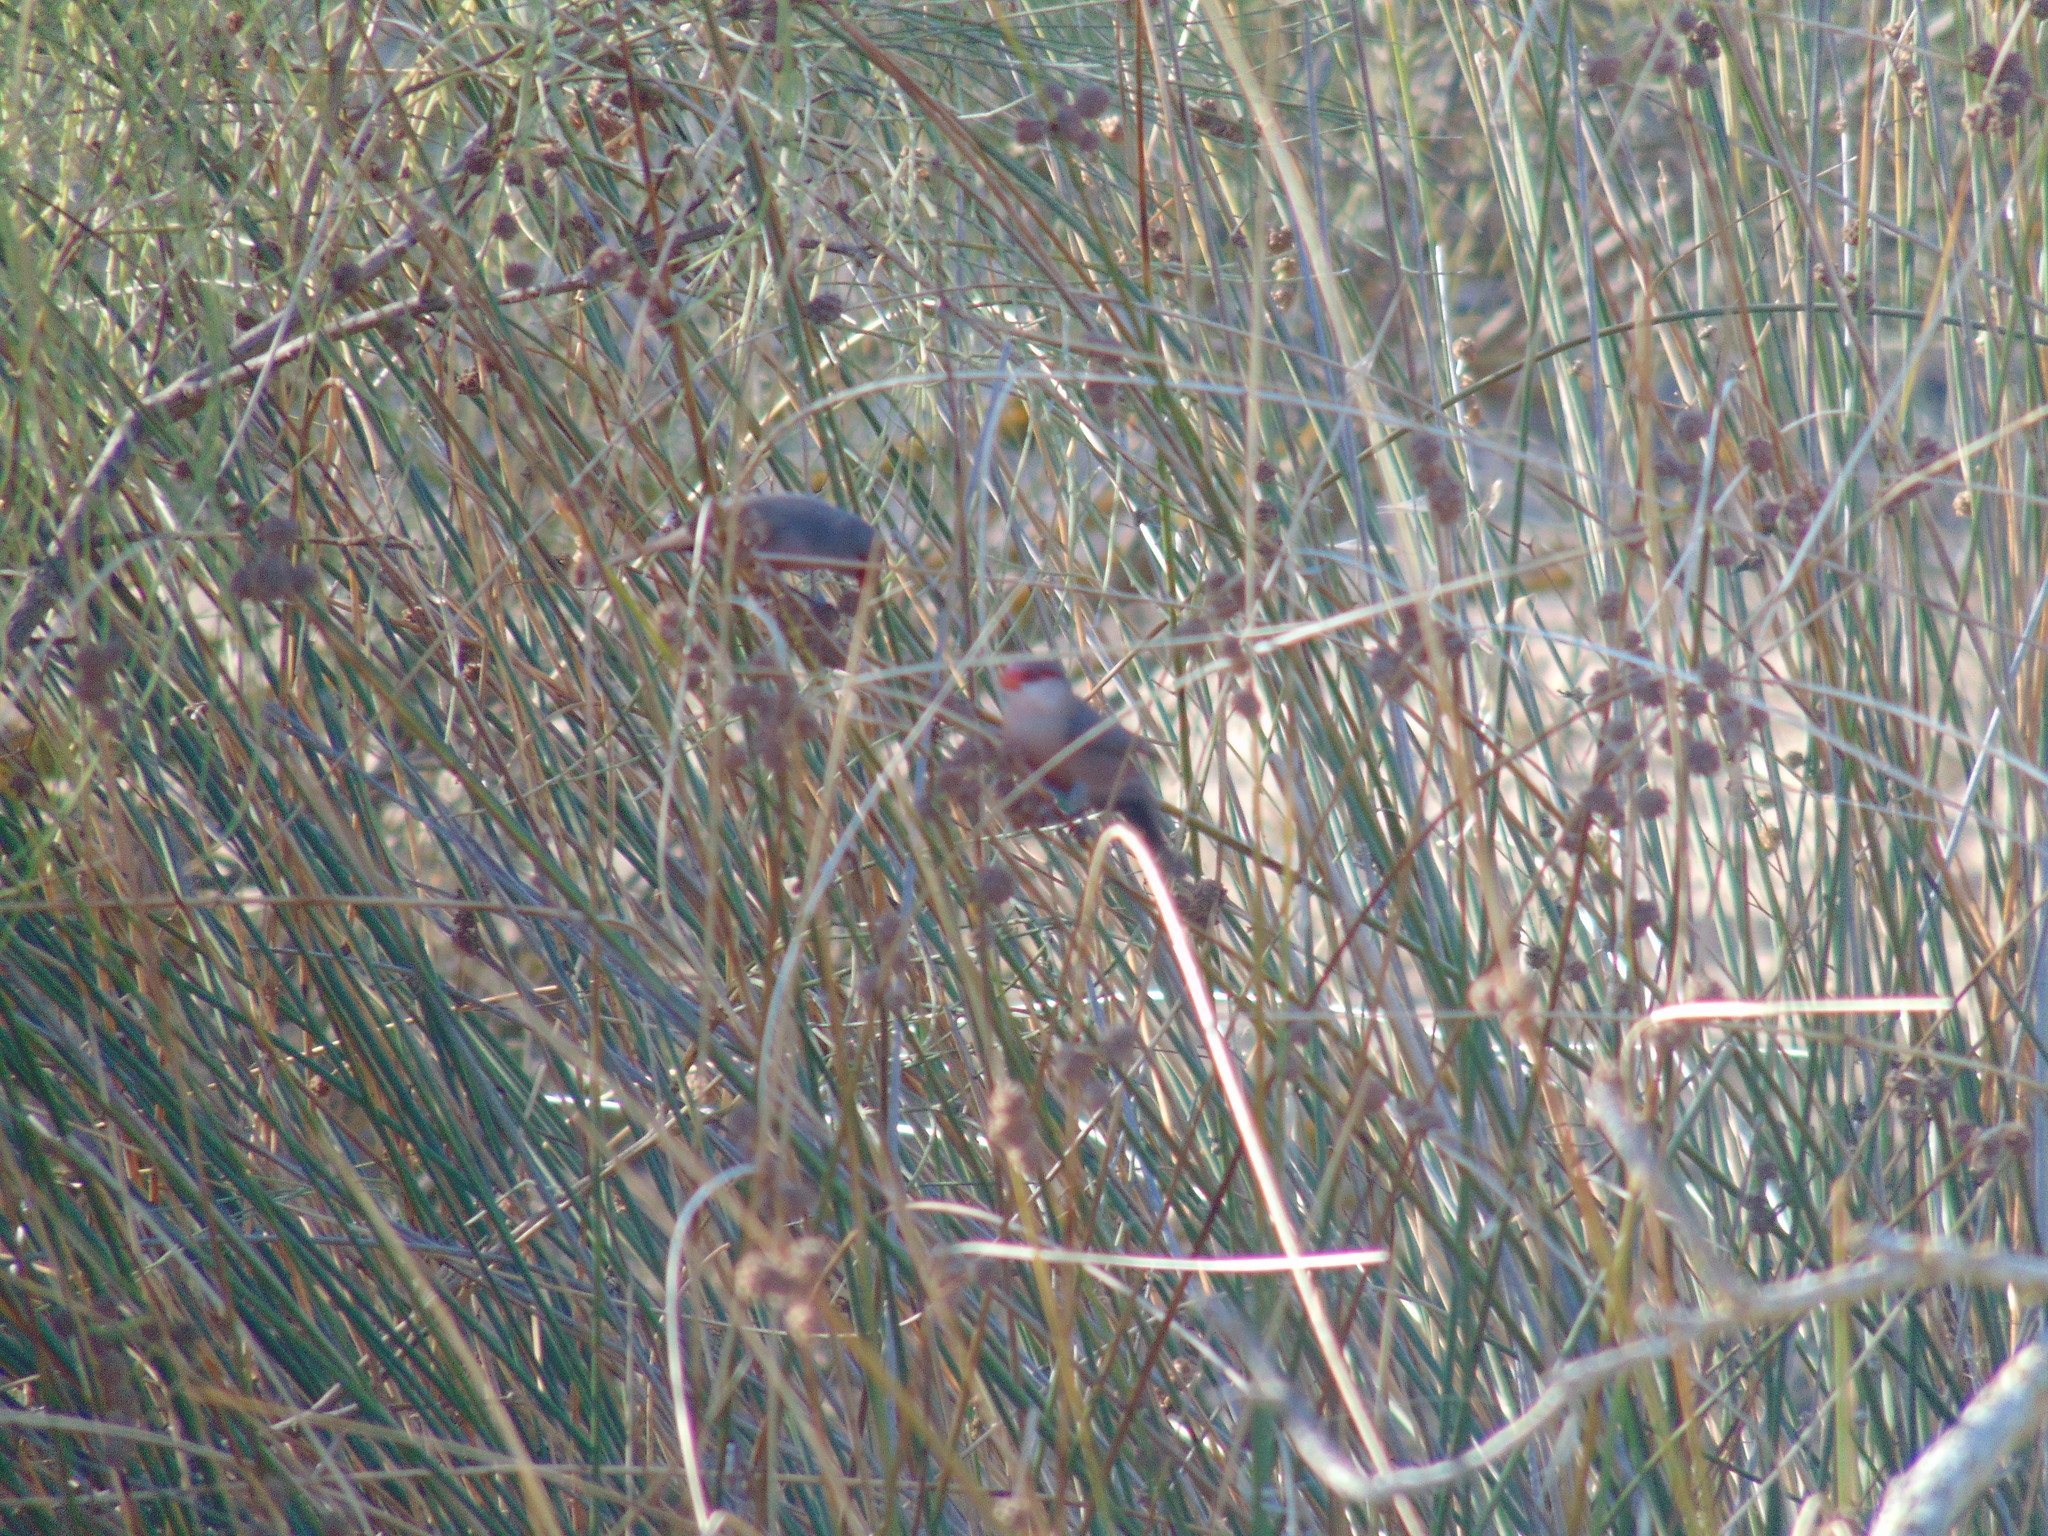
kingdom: Animalia
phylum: Chordata
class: Aves
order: Passeriformes
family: Estrildidae
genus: Estrilda
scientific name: Estrilda astrild
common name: Common waxbill
